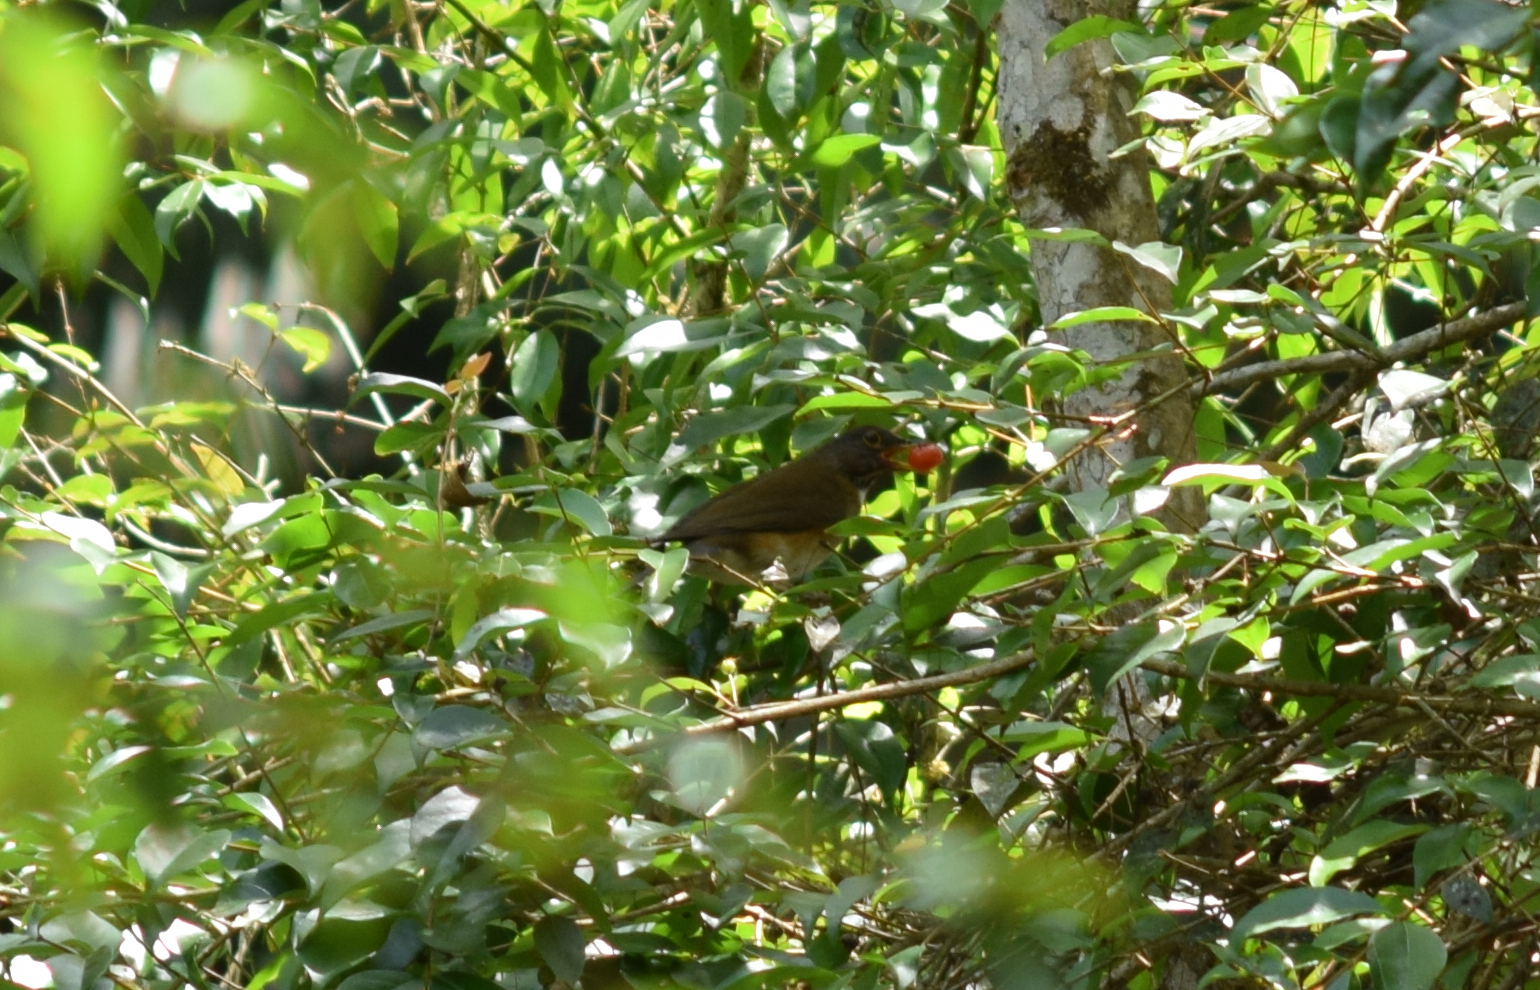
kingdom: Animalia
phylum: Chordata
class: Aves
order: Passeriformes
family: Turdidae
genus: Turdus
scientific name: Turdus albicollis
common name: White-necked thrush
